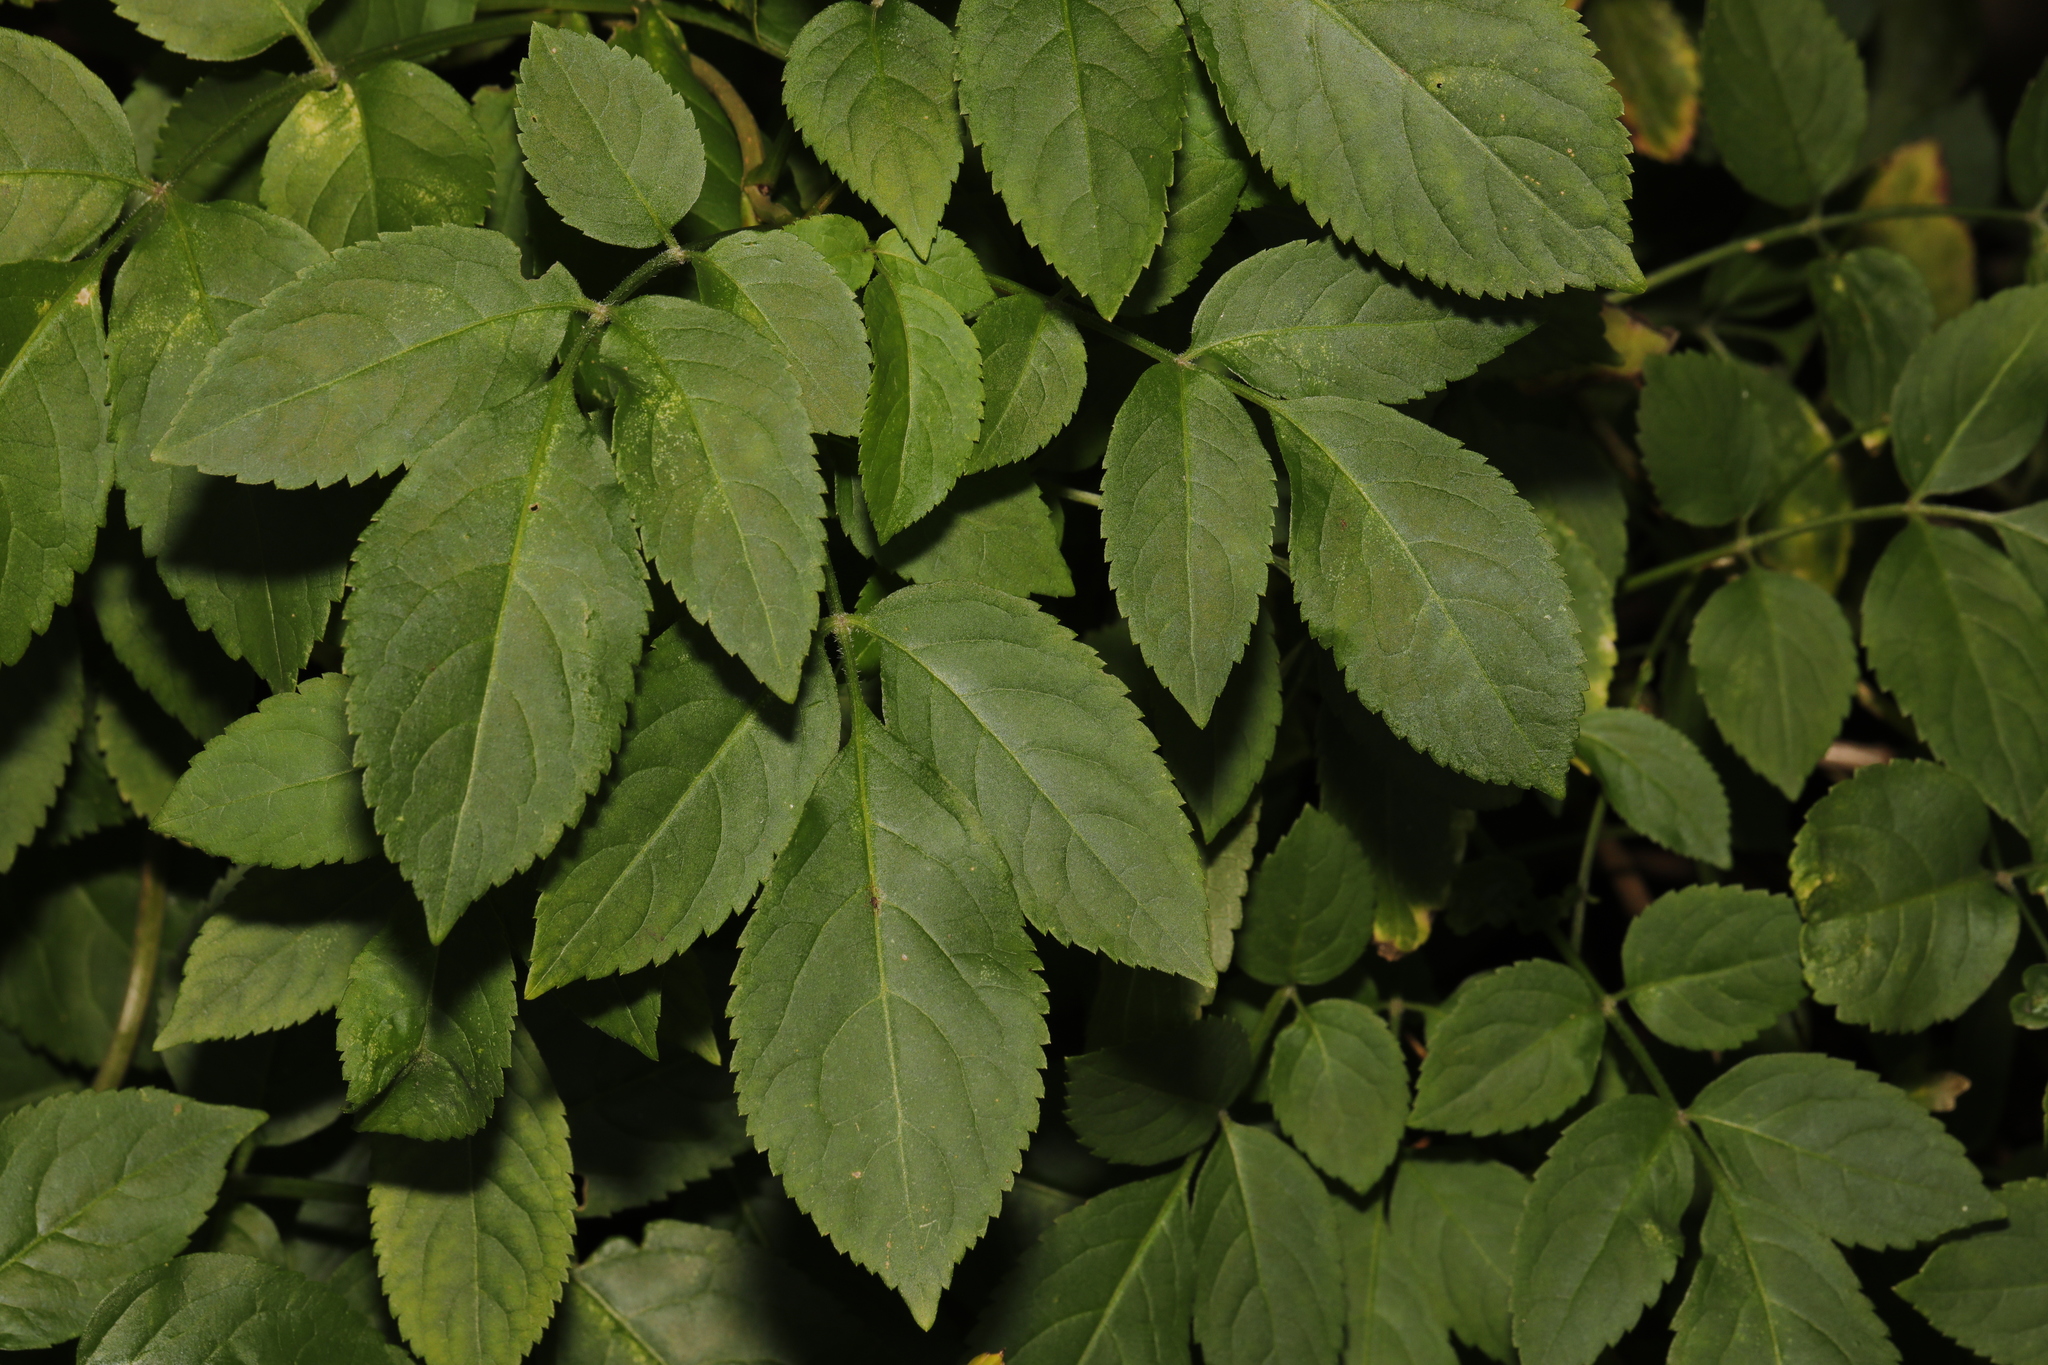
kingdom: Plantae
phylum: Tracheophyta
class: Magnoliopsida
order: Dipsacales
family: Viburnaceae
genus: Sambucus
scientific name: Sambucus nigra
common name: Elder
